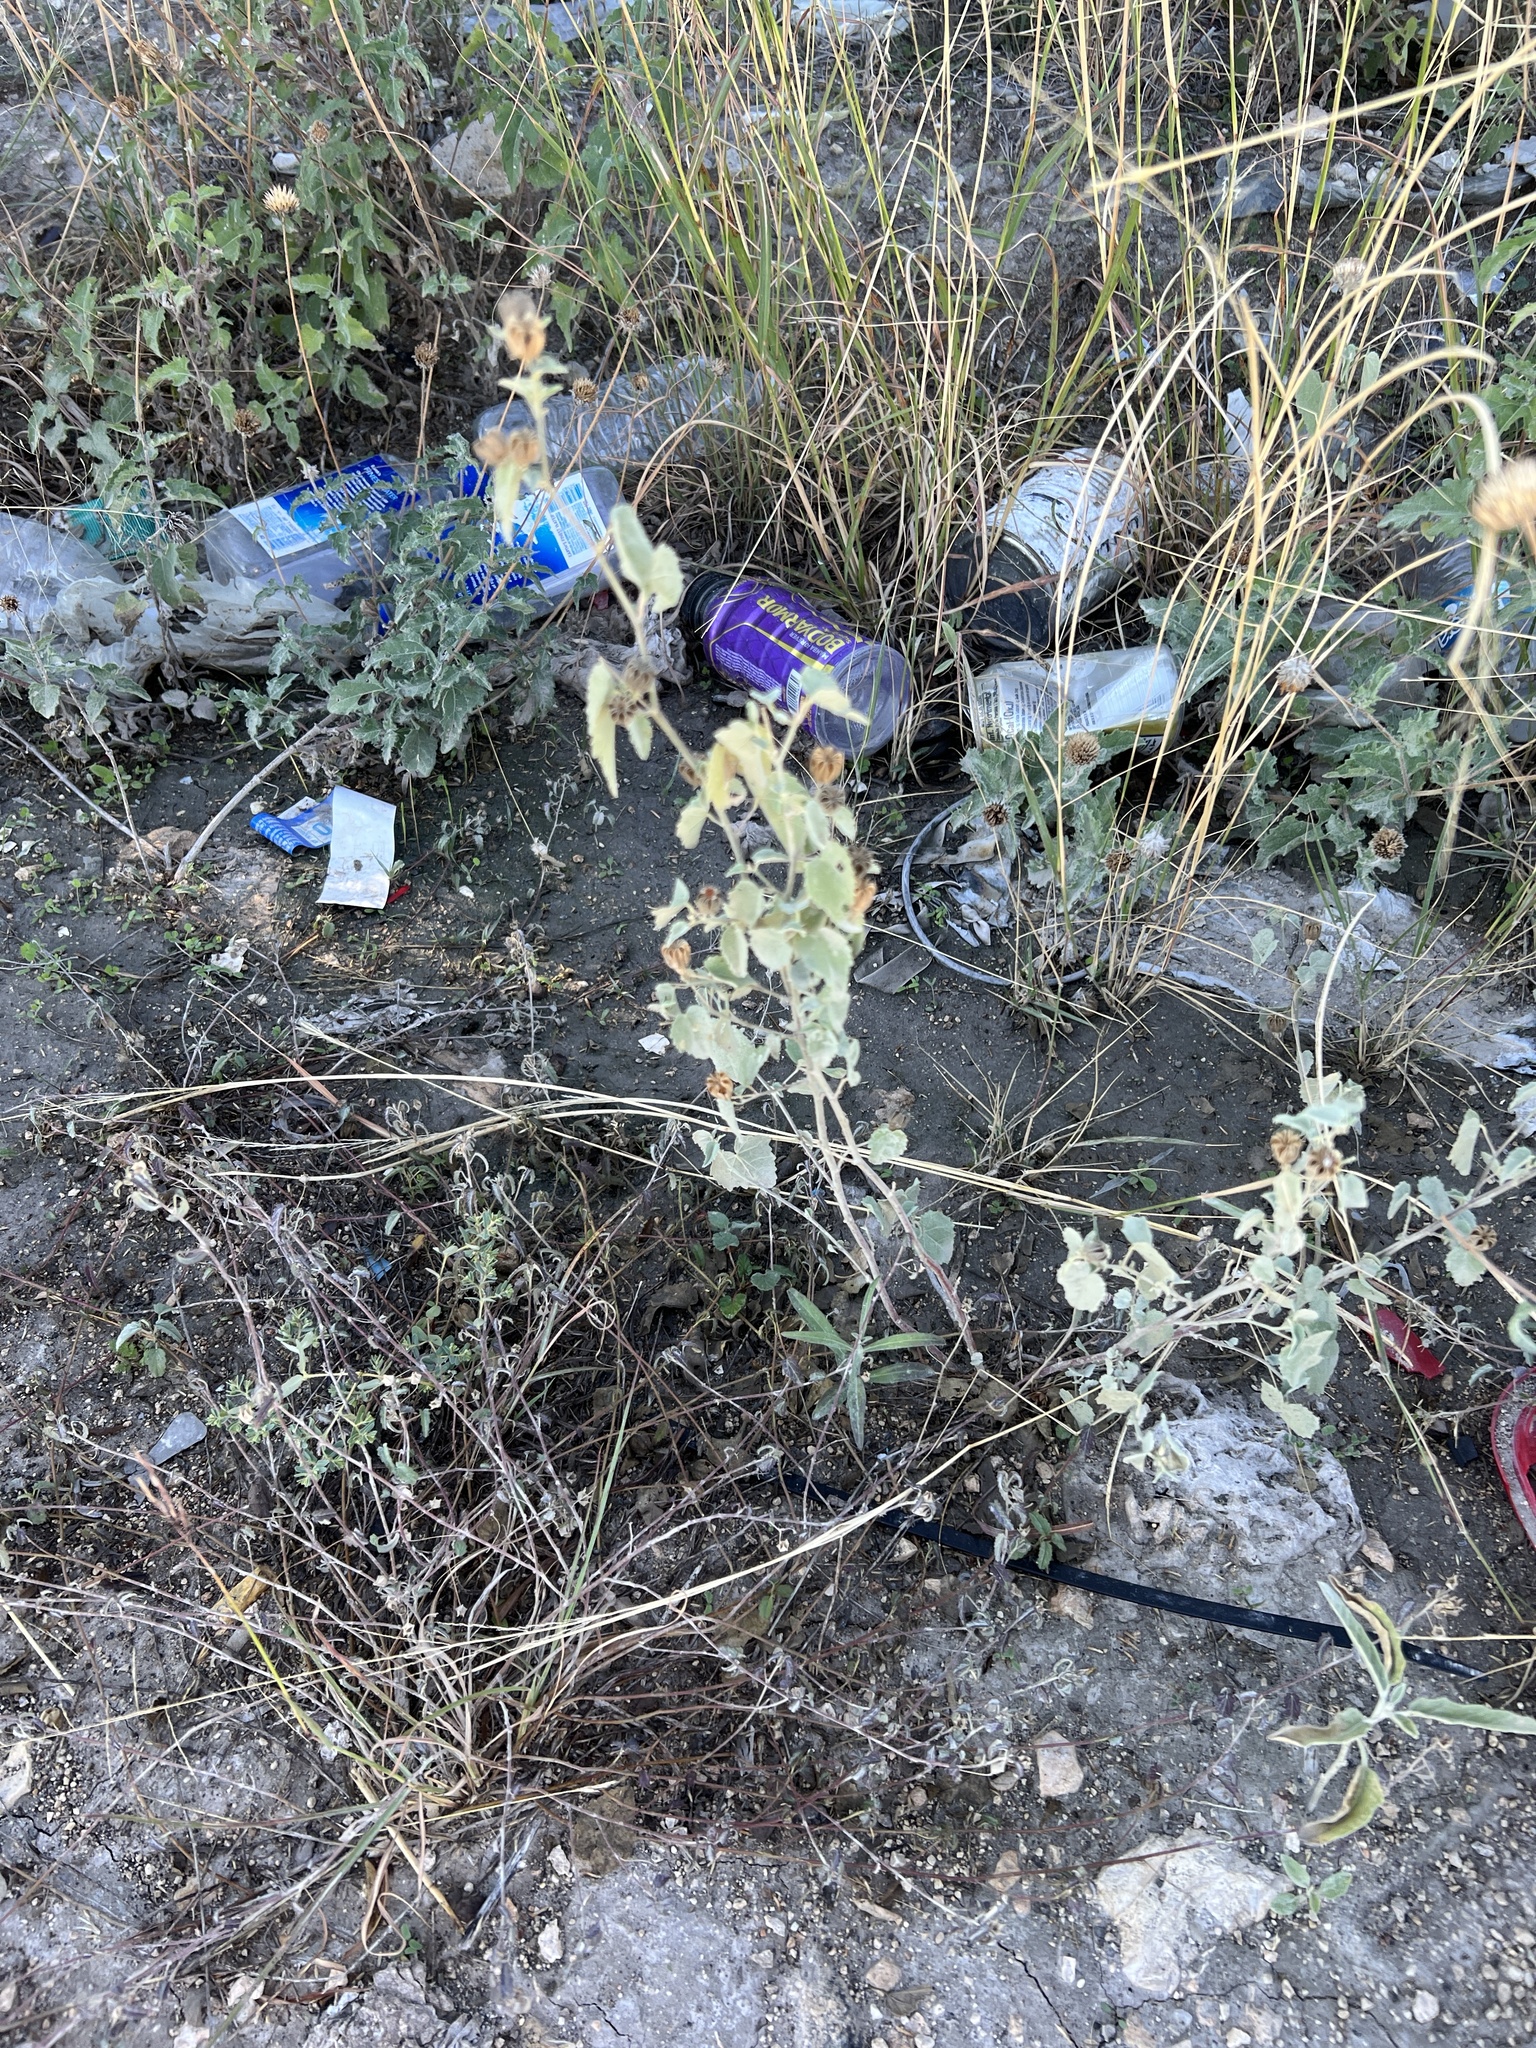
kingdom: Plantae
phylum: Tracheophyta
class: Magnoliopsida
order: Malvales
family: Malvaceae
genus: Abutilon
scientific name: Abutilon fruticosum
